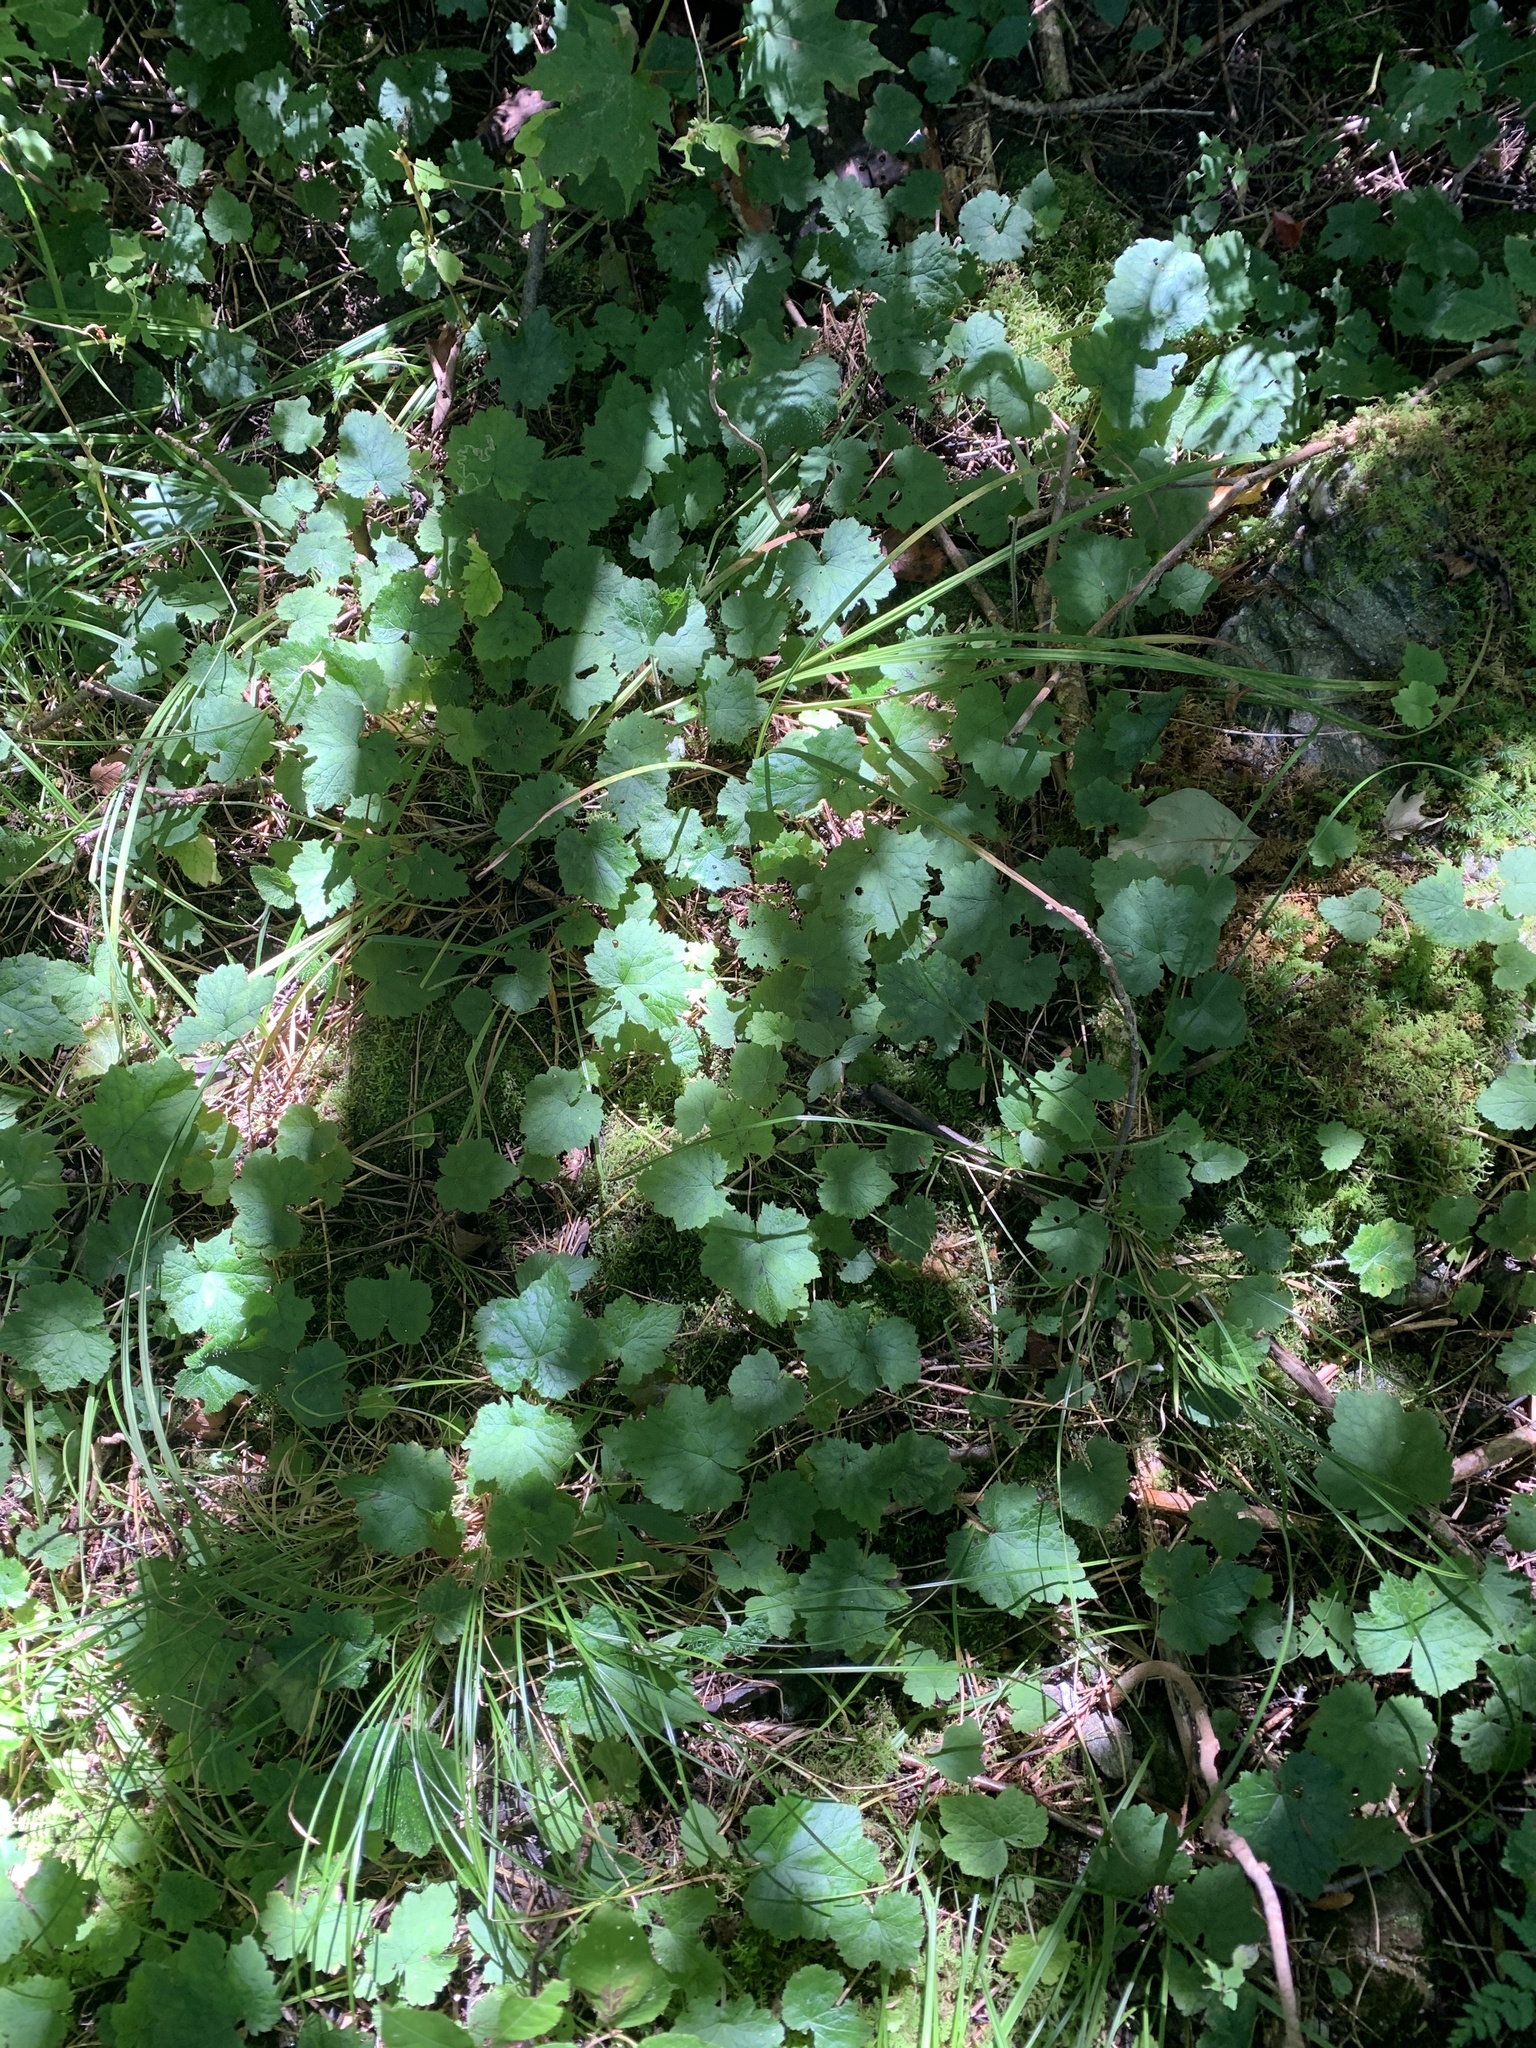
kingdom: Plantae
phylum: Tracheophyta
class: Magnoliopsida
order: Saxifragales
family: Saxifragaceae
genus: Tiarella
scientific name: Tiarella stolonifera
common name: Stoloniferous foamflower
